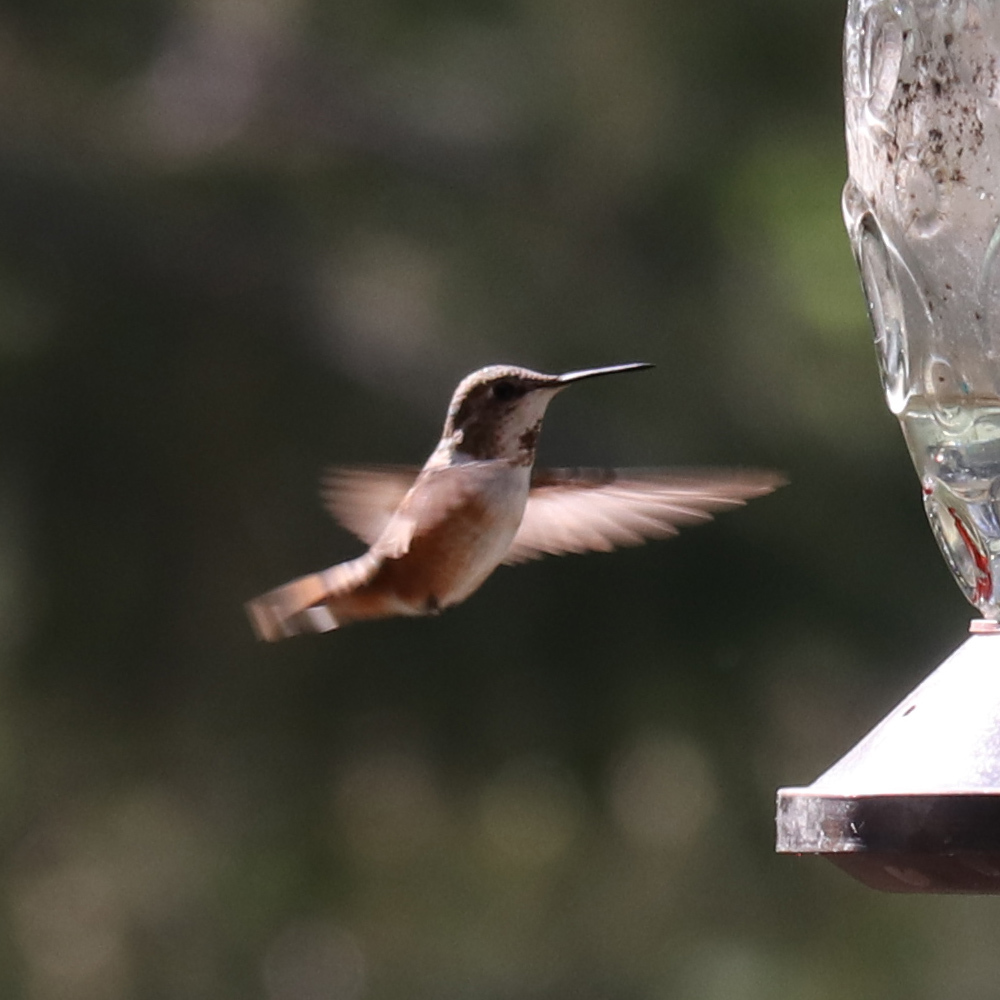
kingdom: Animalia
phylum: Chordata
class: Aves
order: Apodiformes
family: Trochilidae
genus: Selasphorus
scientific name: Selasphorus rufus
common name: Rufous hummingbird
